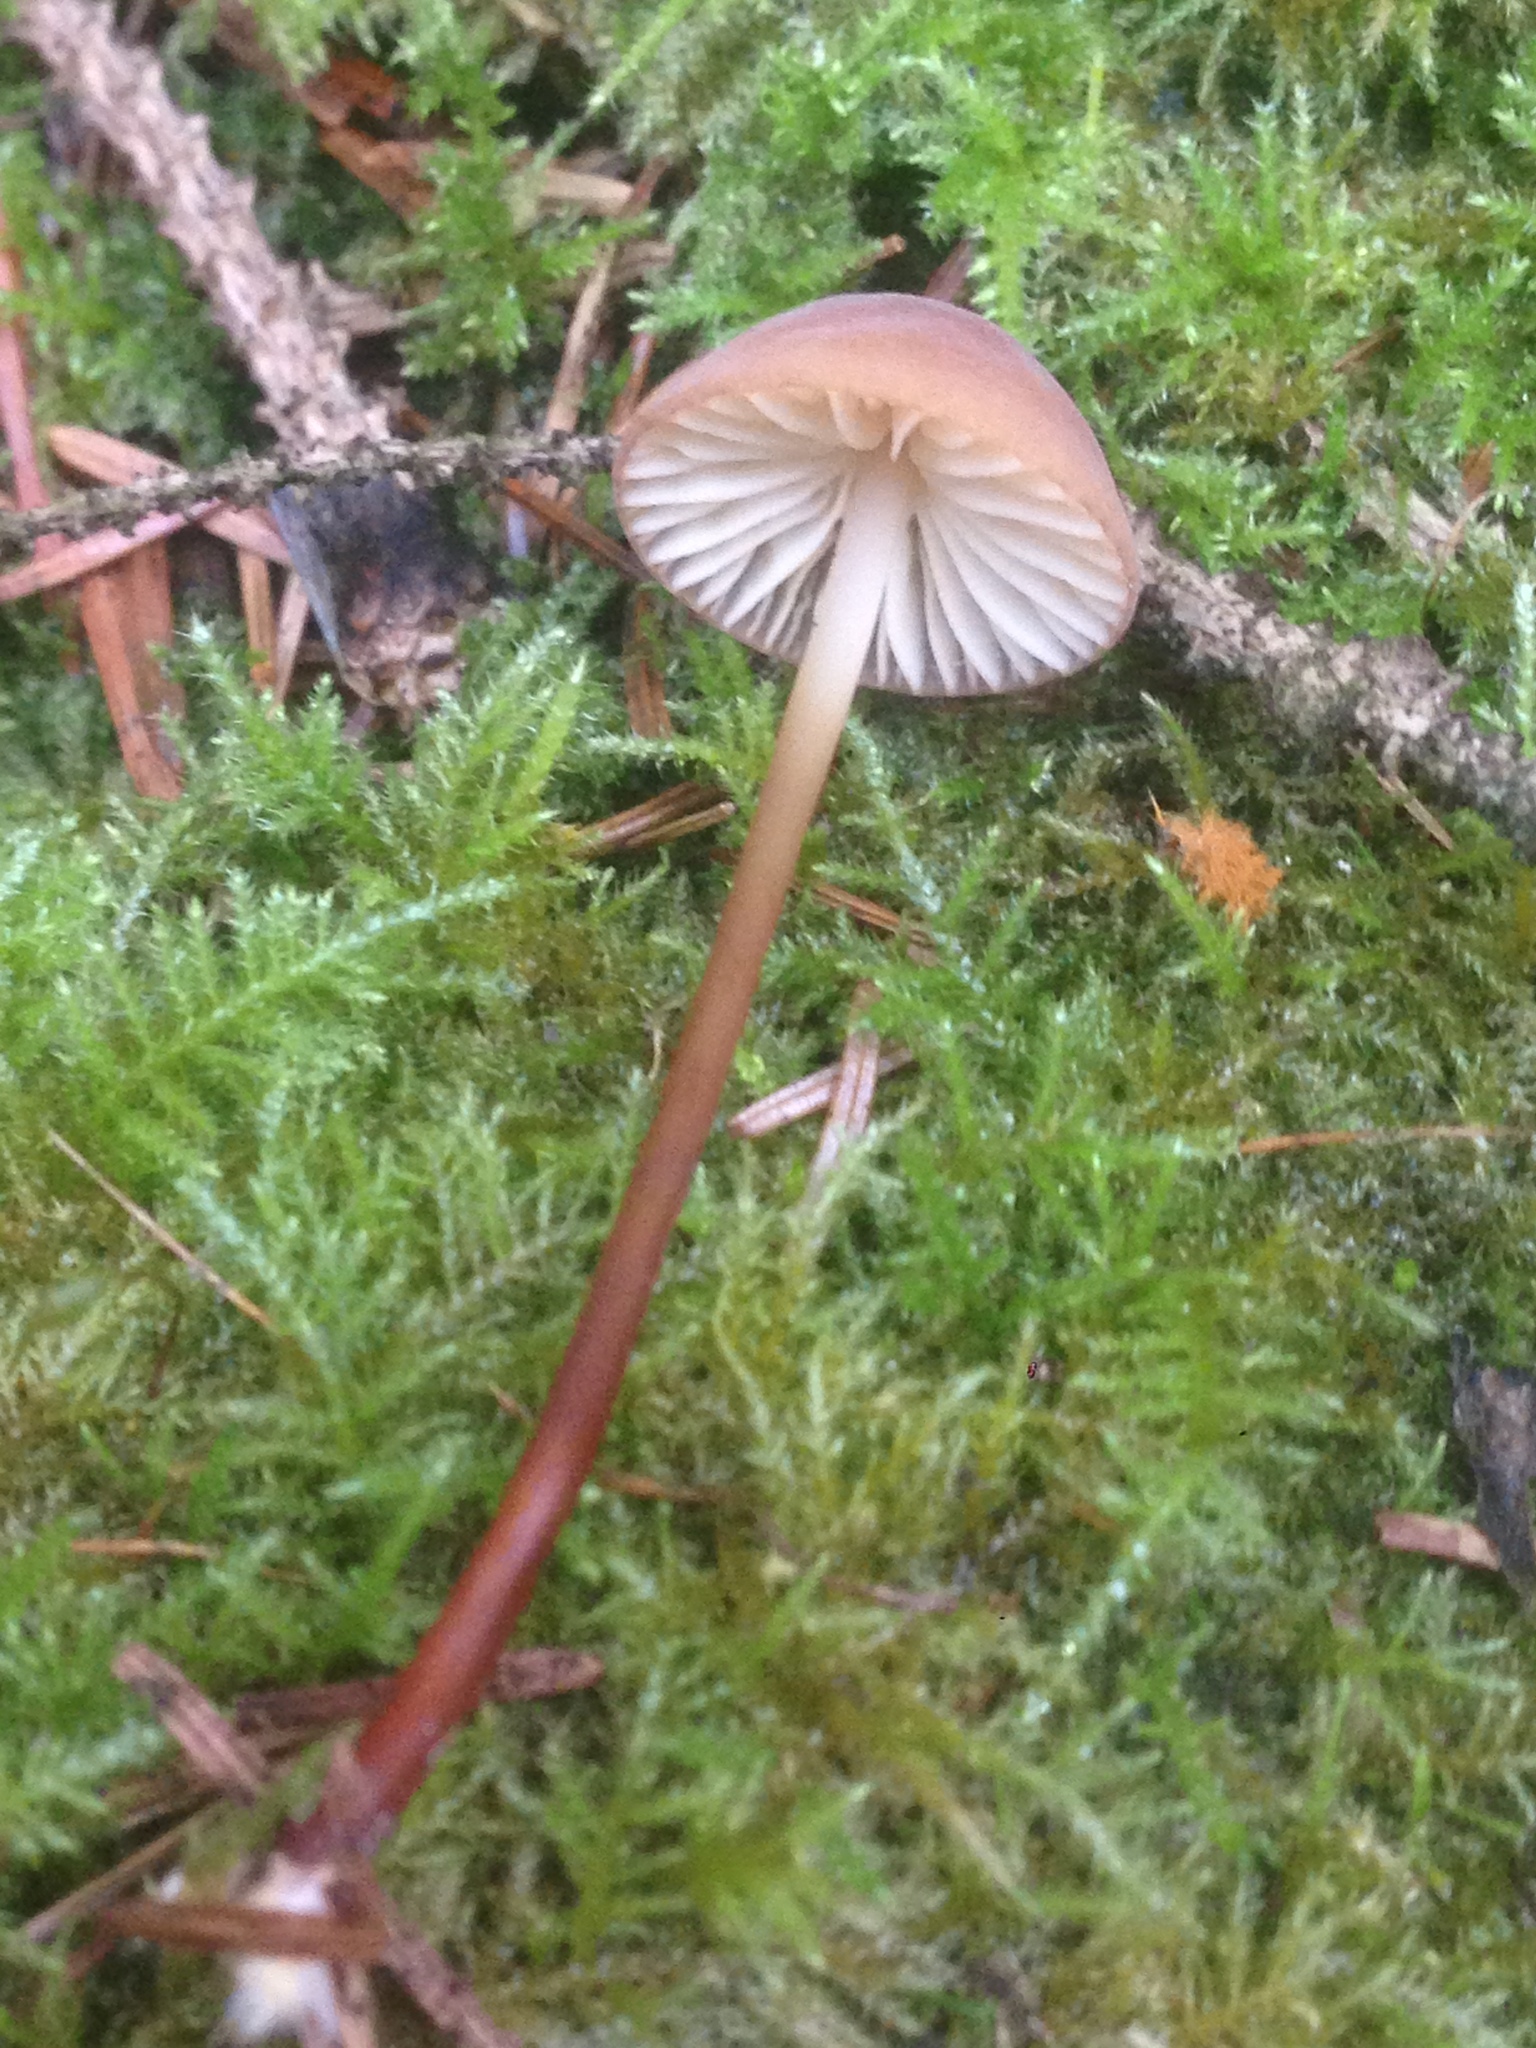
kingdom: Fungi
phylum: Basidiomycota
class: Agaricomycetes
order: Agaricales
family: Marasmiaceae
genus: Marasmius
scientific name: Marasmius plicatulus
